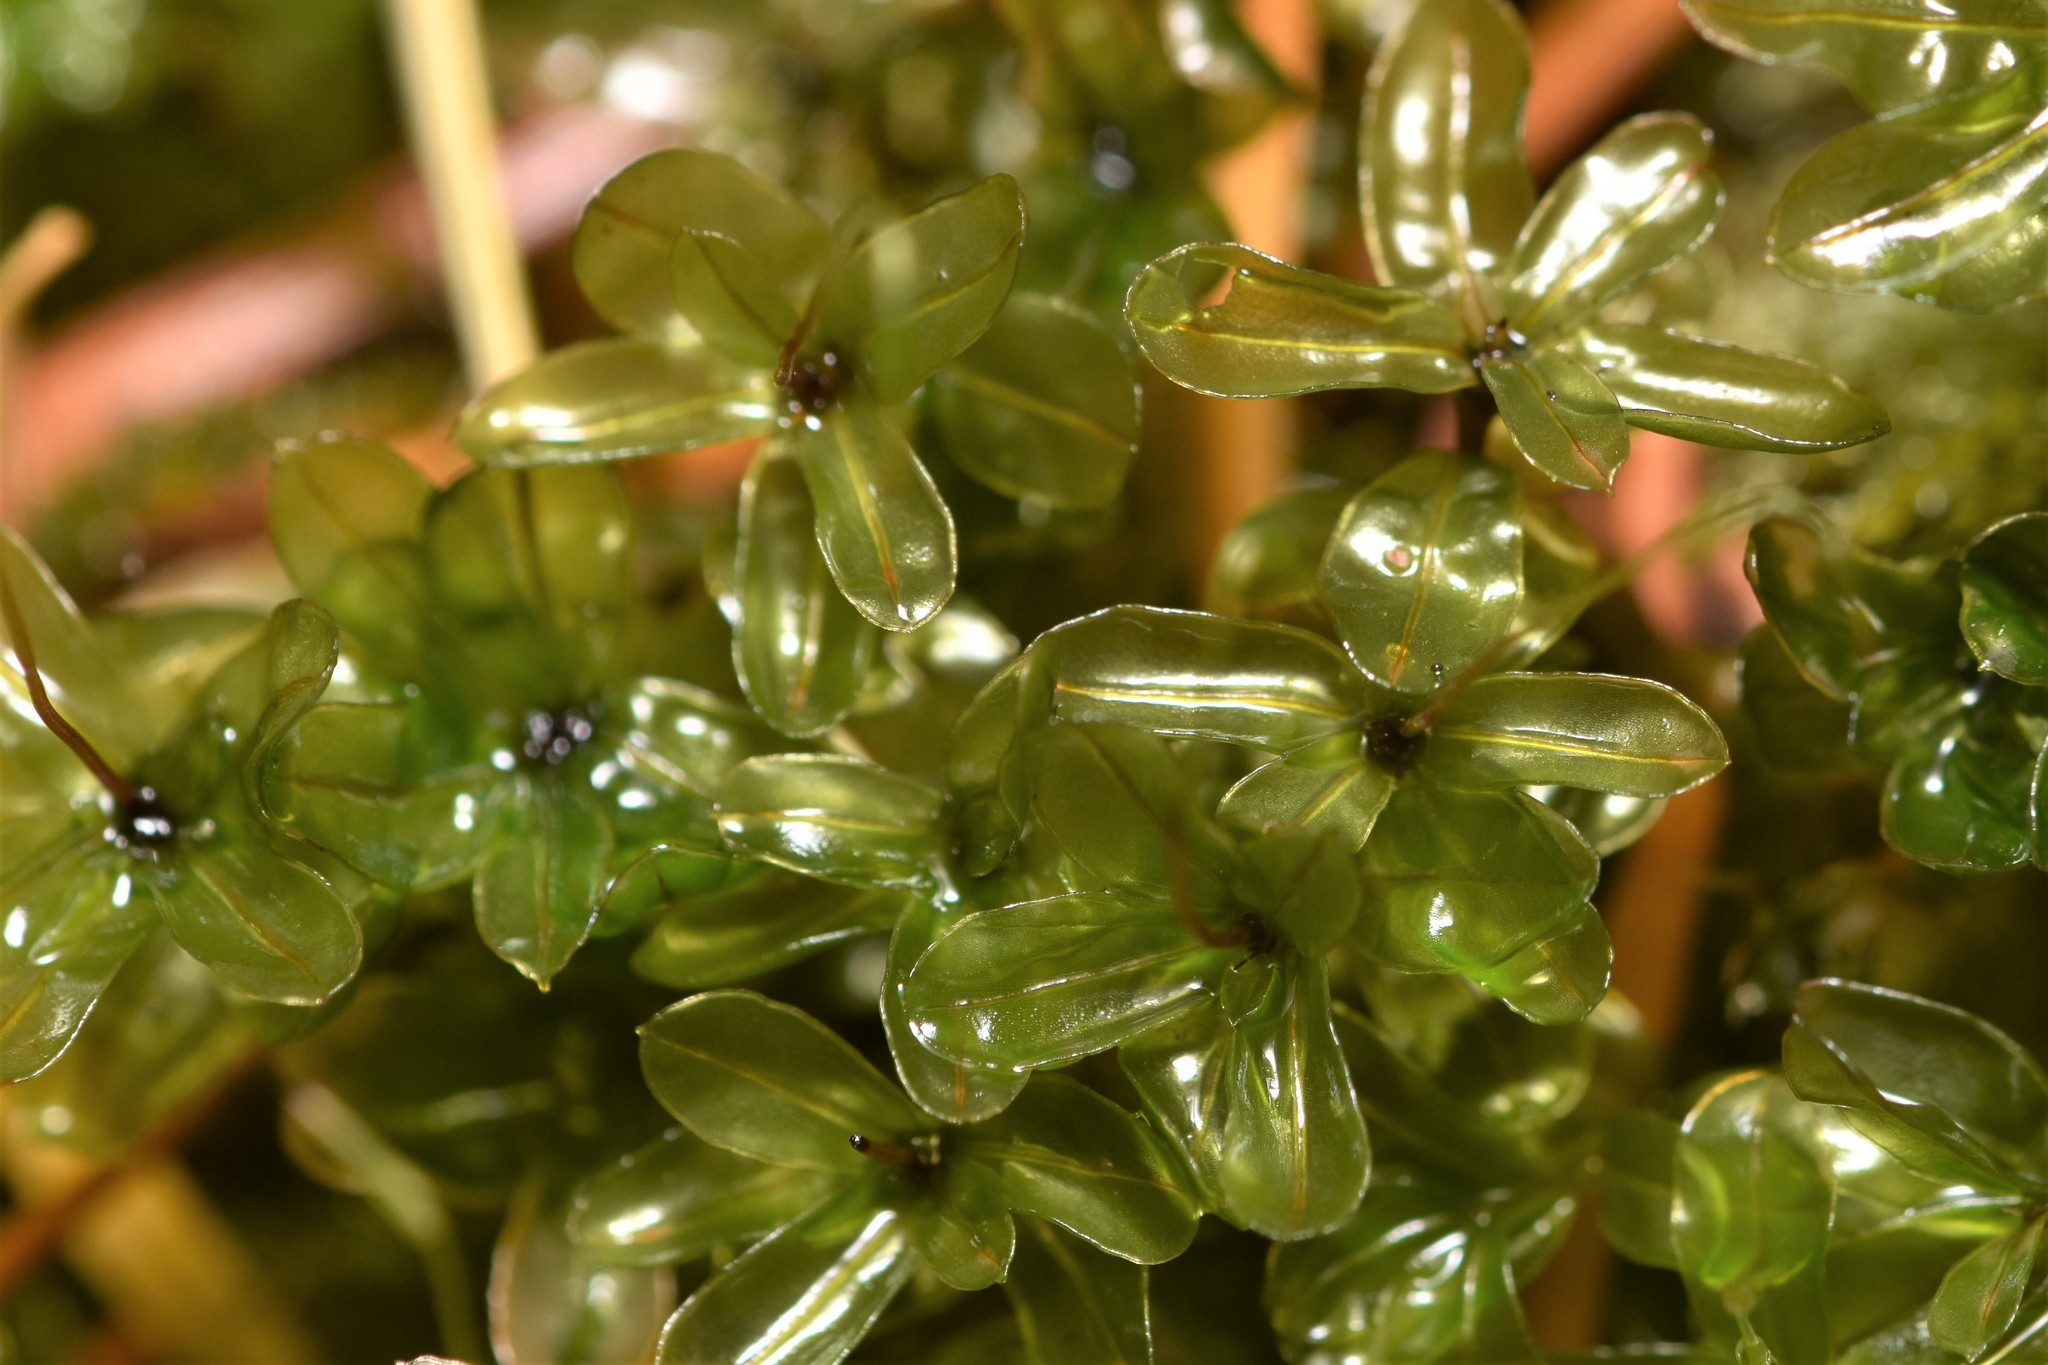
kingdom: Plantae
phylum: Bryophyta
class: Bryopsida
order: Bryales
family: Mniaceae
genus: Rhizomnium
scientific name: Rhizomnium glabrescens
